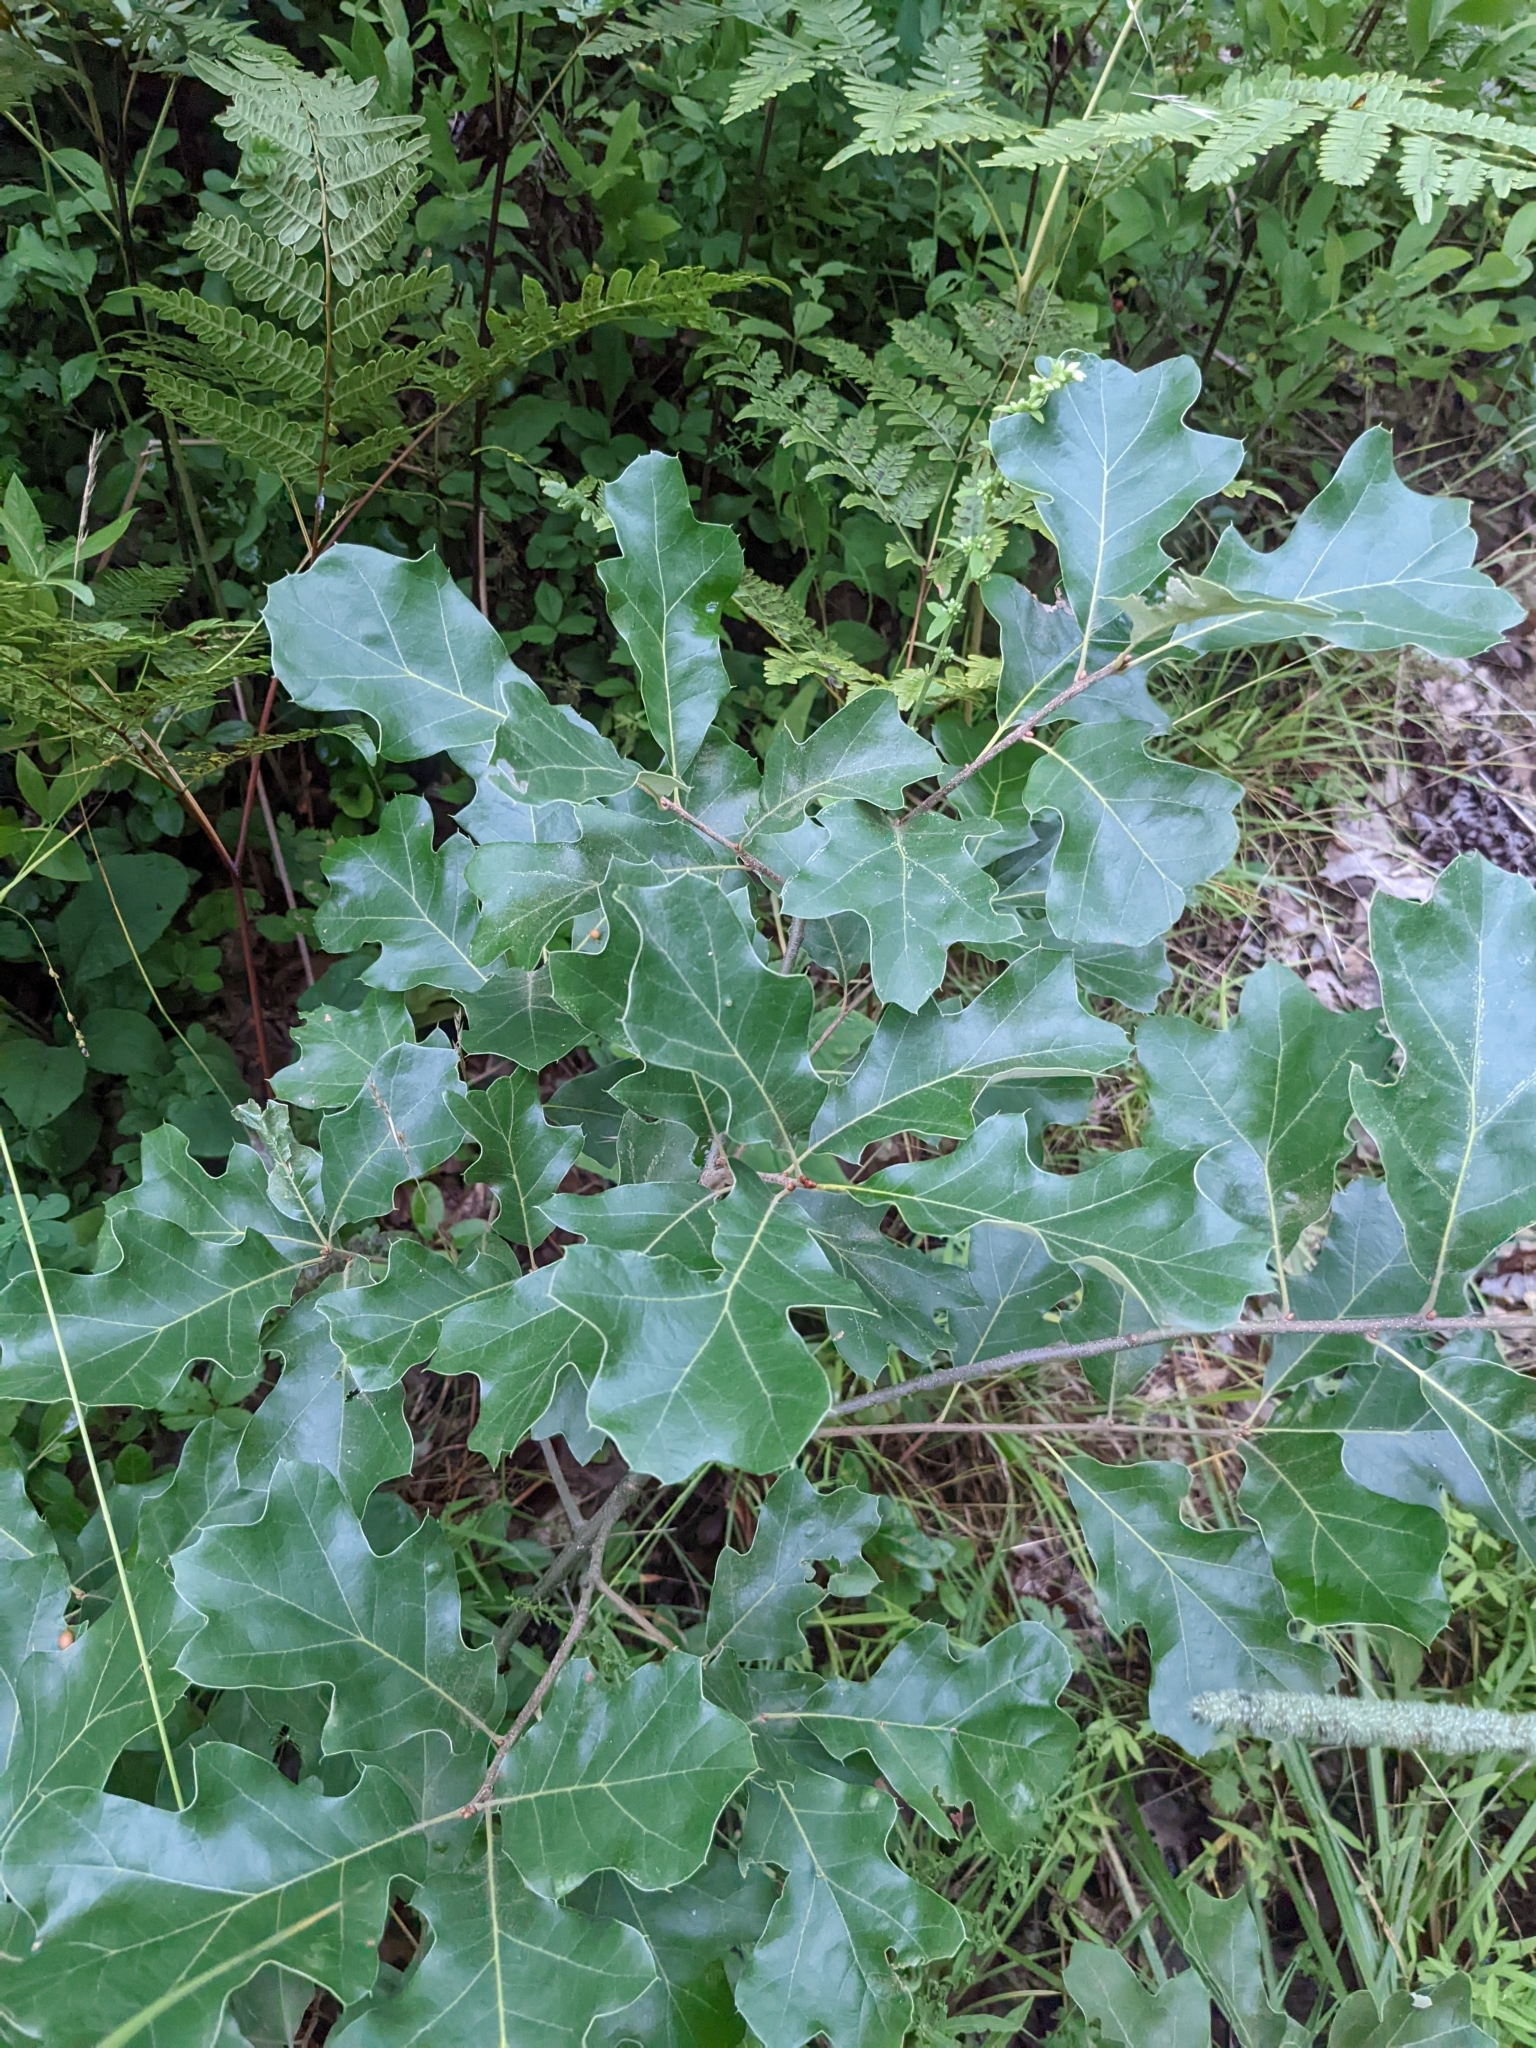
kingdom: Plantae
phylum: Tracheophyta
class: Magnoliopsida
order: Fagales
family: Fagaceae
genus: Quercus
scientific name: Quercus ilicifolia
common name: Bear oak
